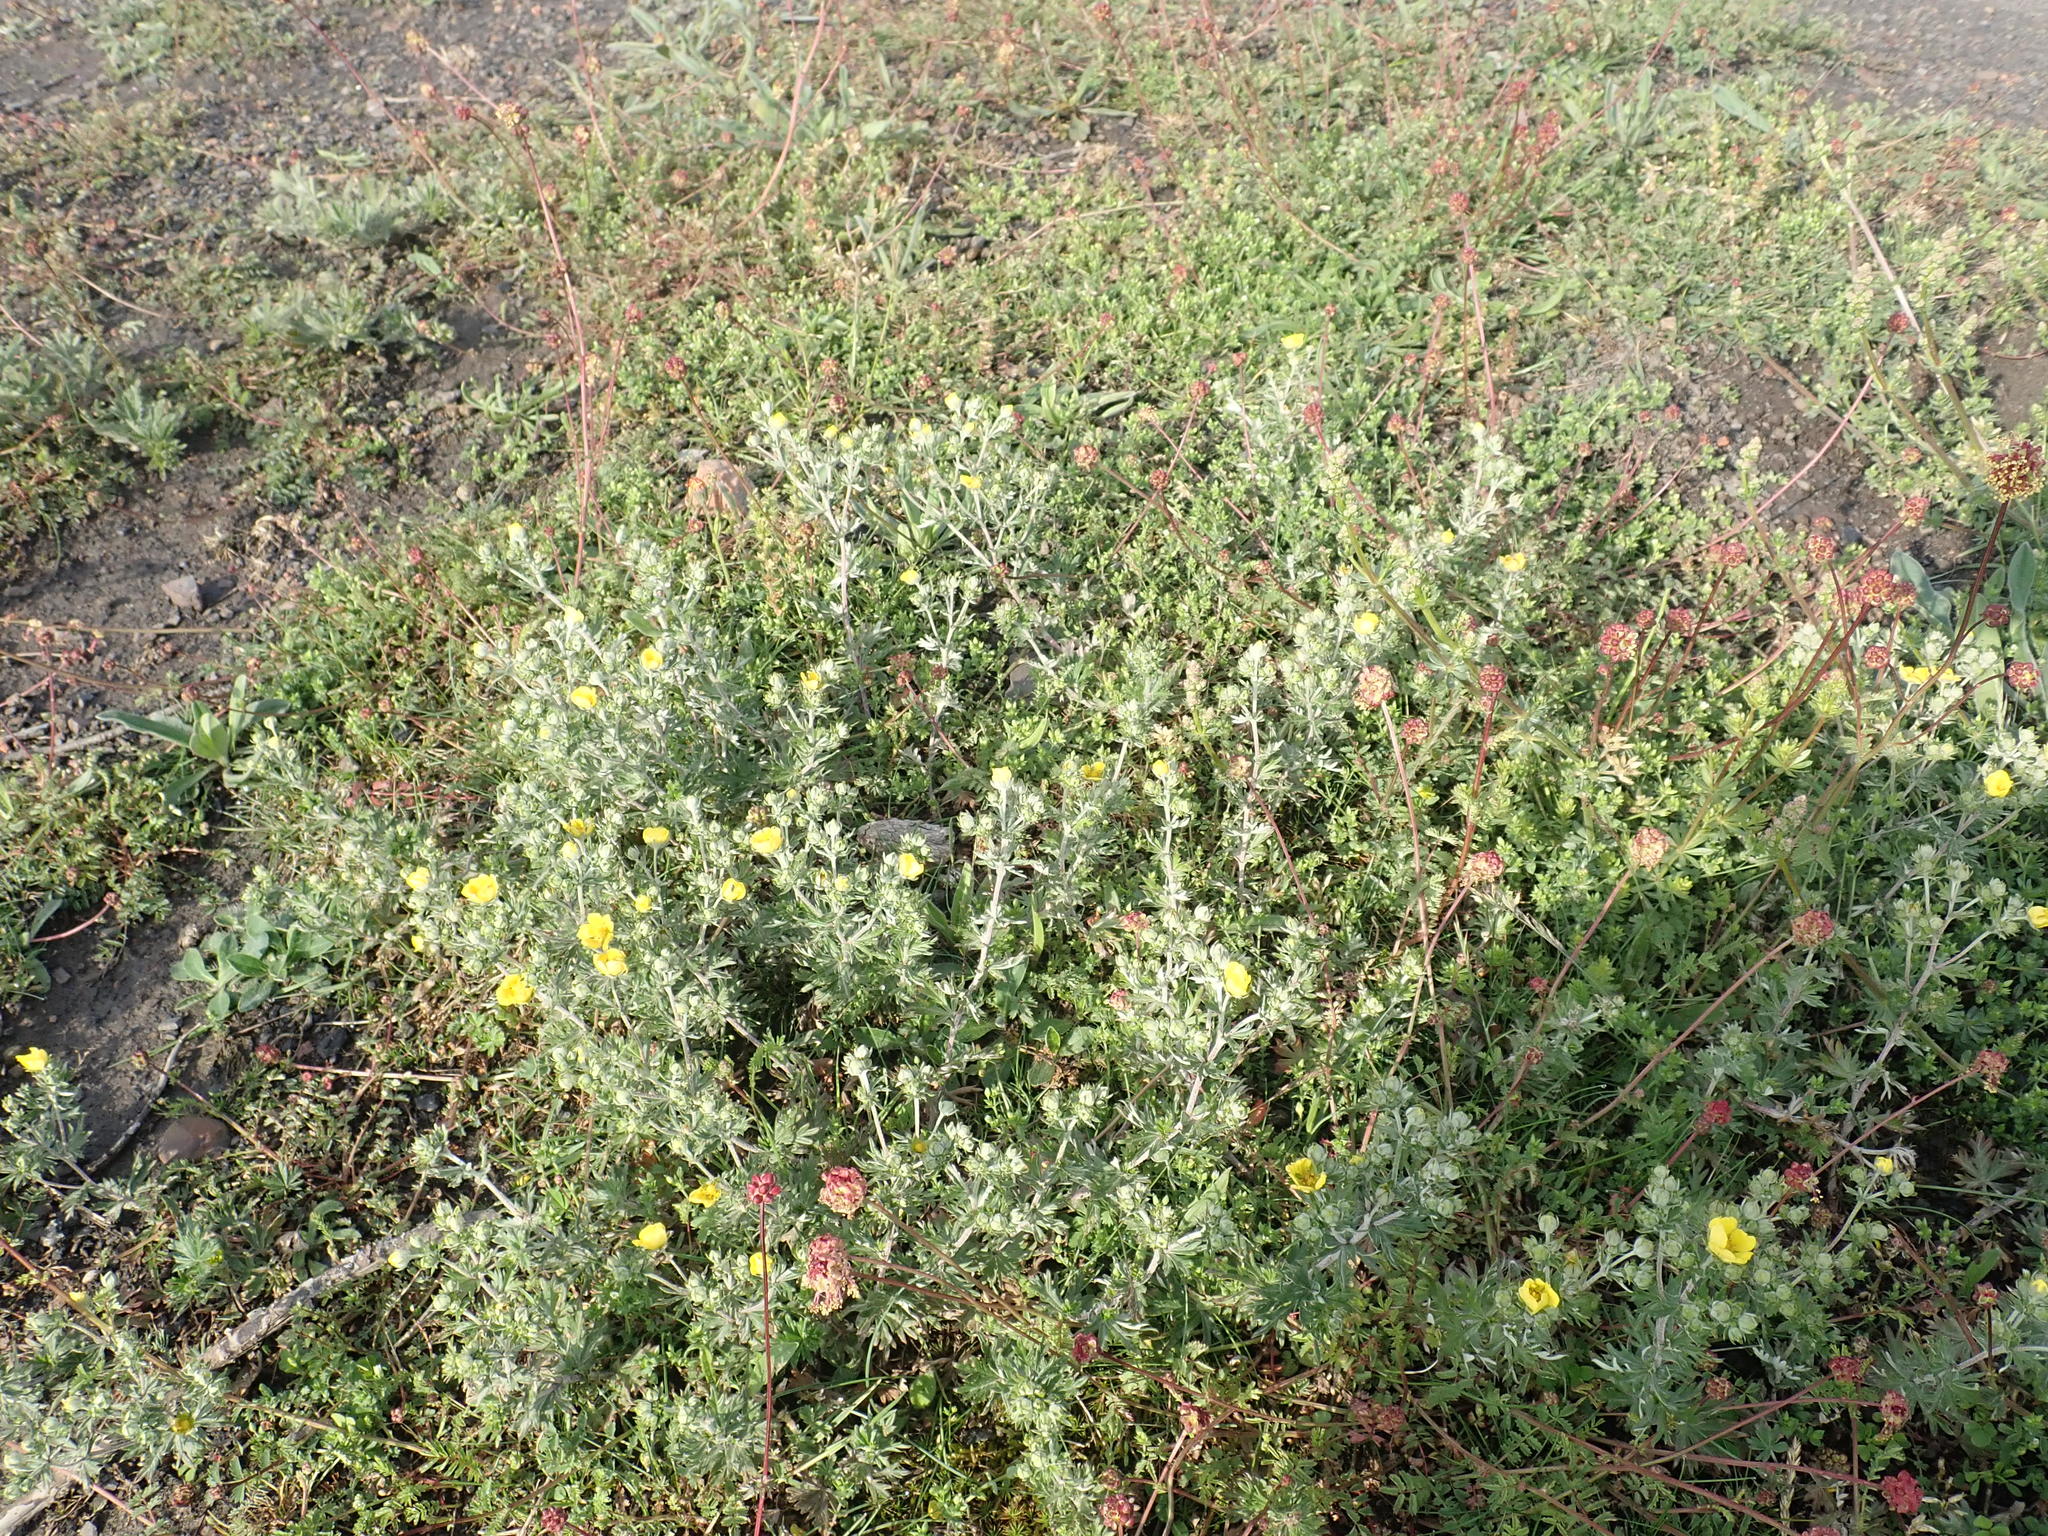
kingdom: Plantae
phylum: Tracheophyta
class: Magnoliopsida
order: Rosales
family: Rosaceae
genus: Potentilla
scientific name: Potentilla argentea
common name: Hoary cinquefoil
